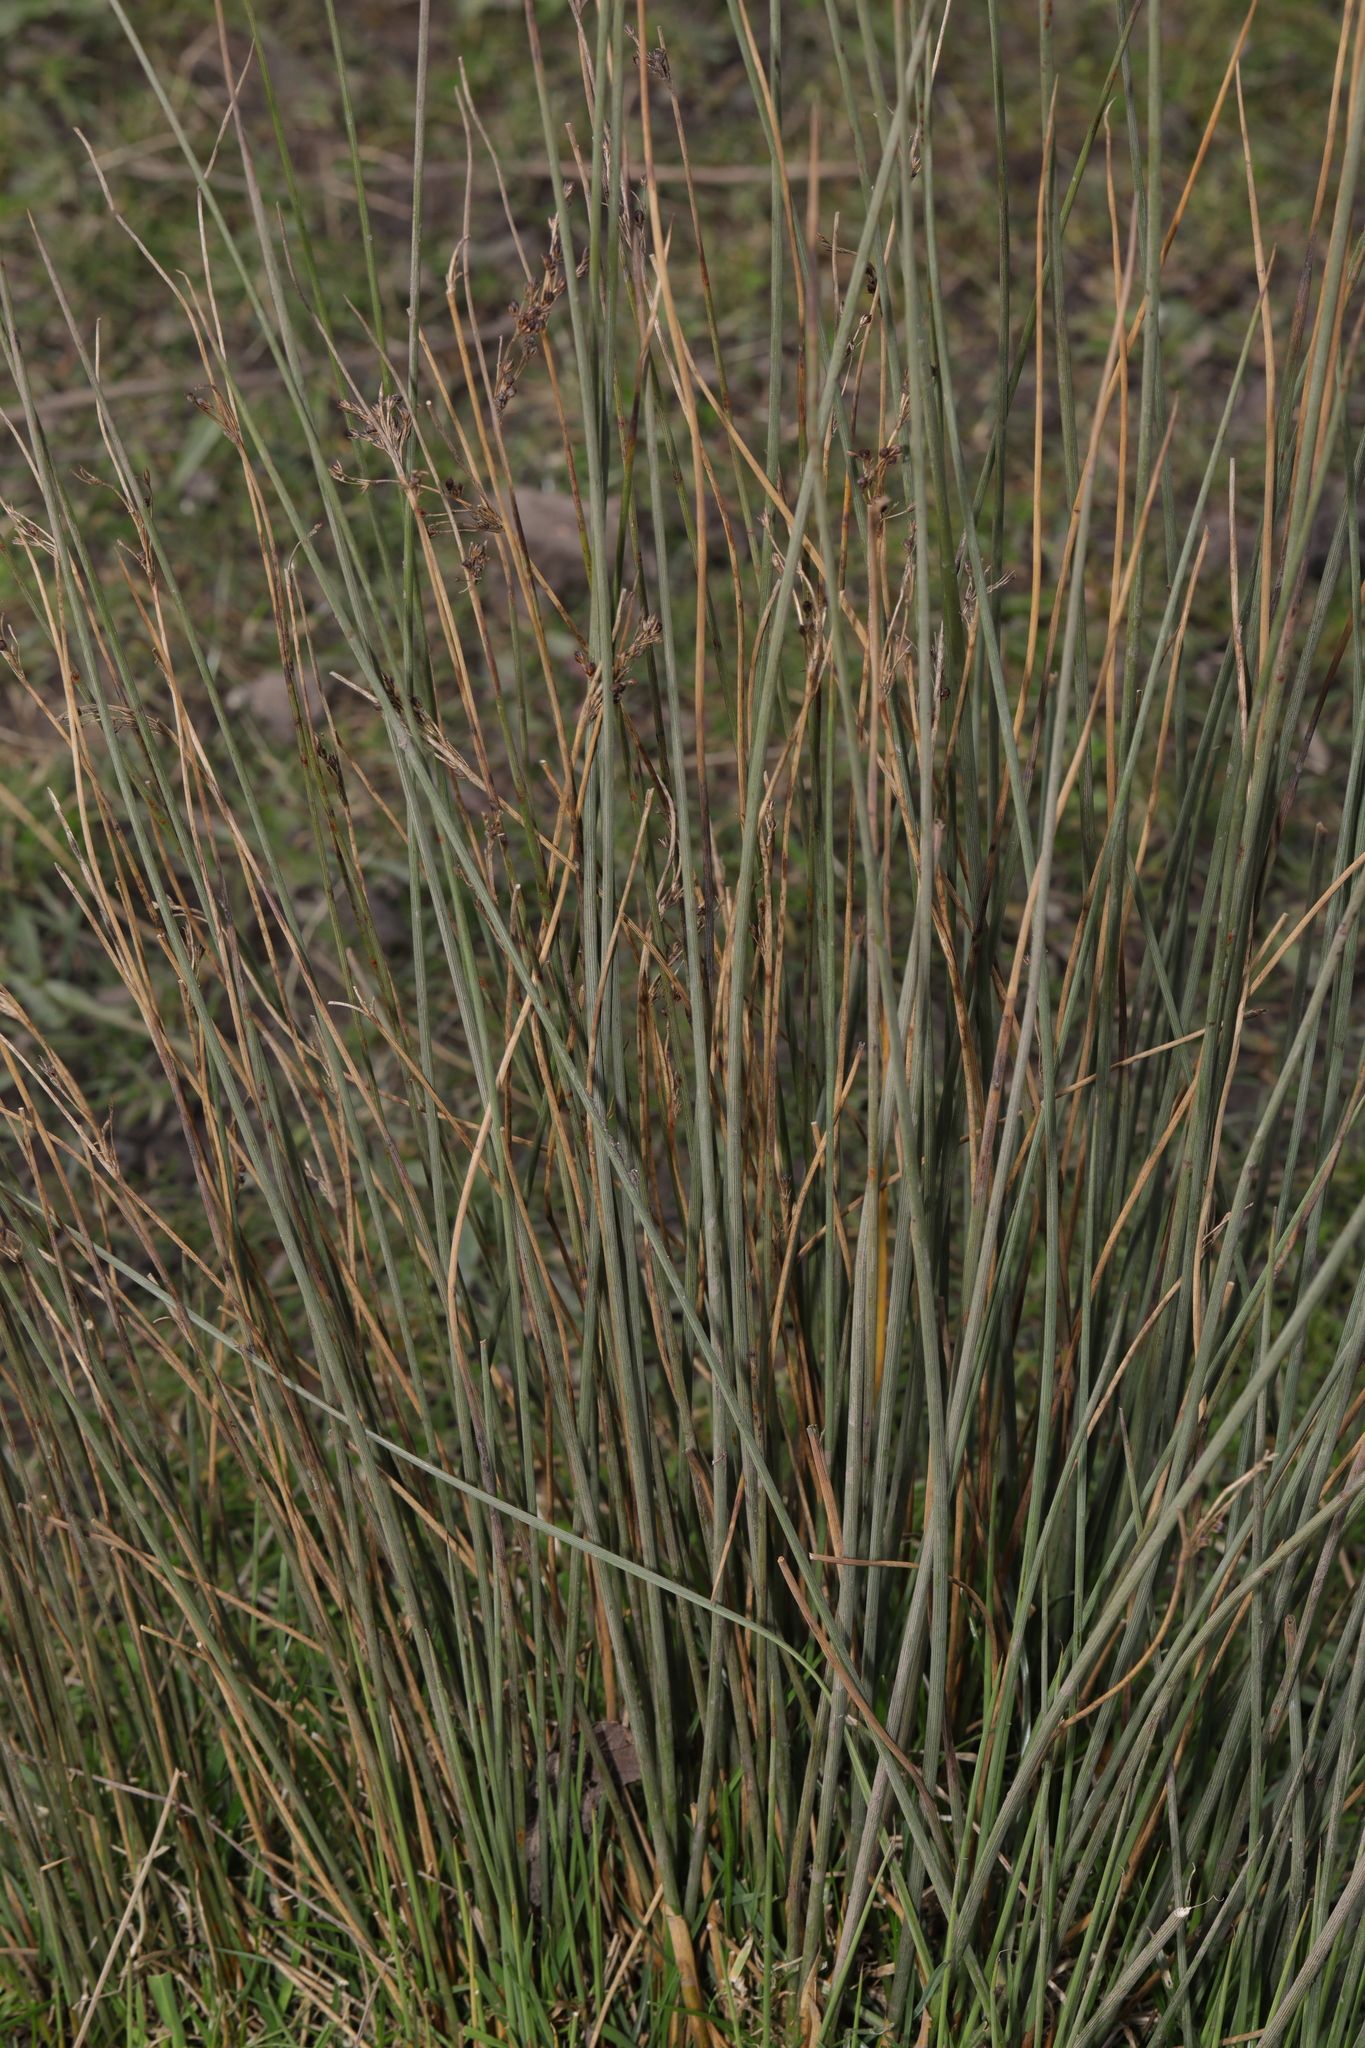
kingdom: Plantae
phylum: Tracheophyta
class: Liliopsida
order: Poales
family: Juncaceae
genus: Juncus
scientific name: Juncus inflexus
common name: Hard rush
